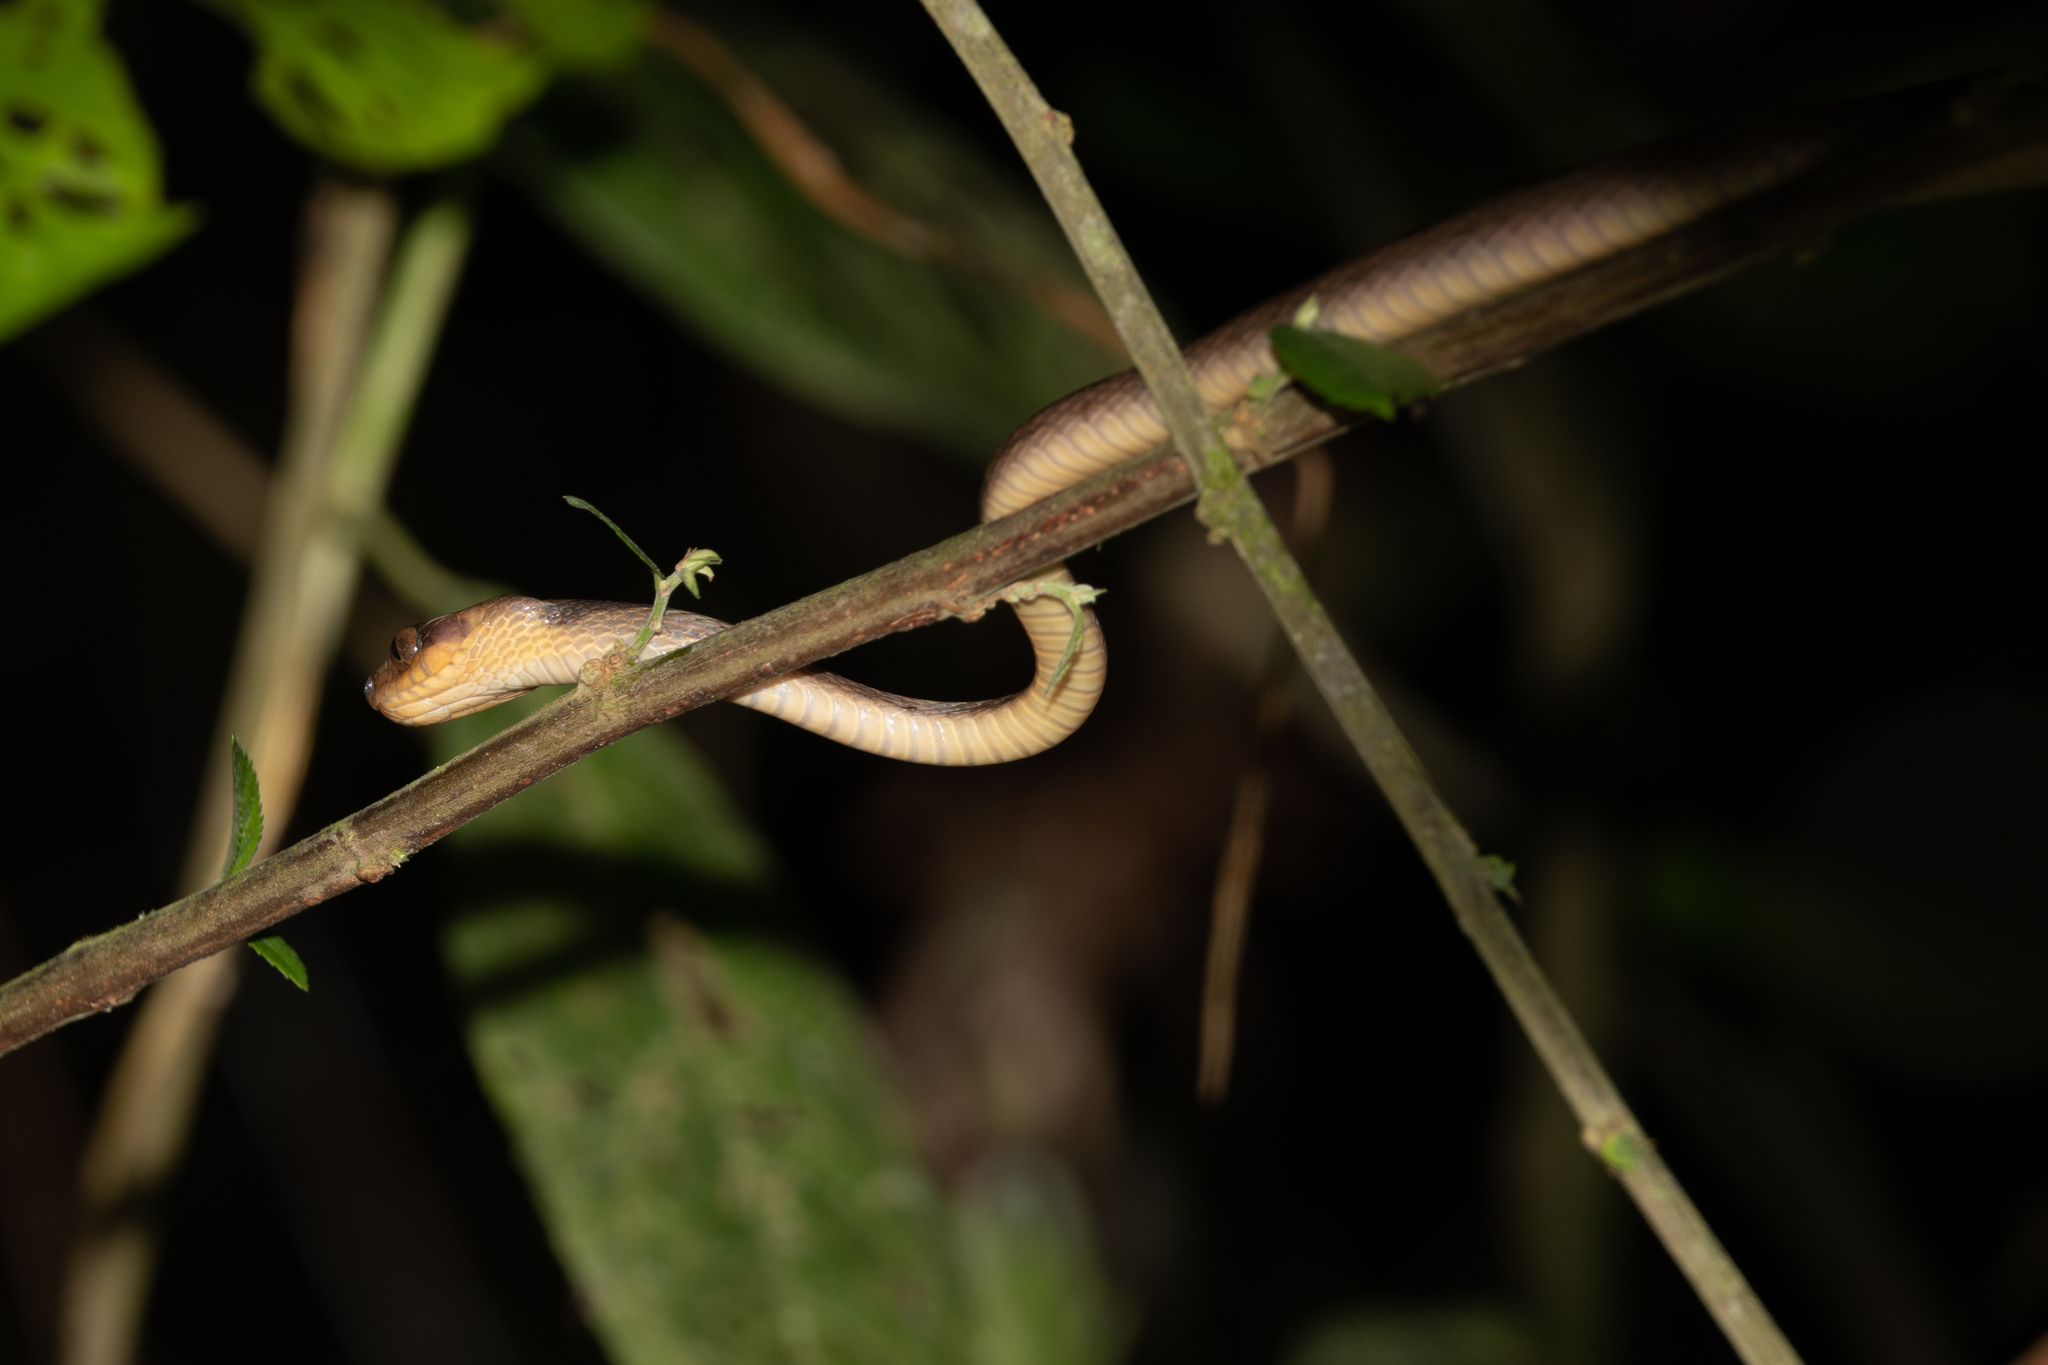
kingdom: Animalia
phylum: Chordata
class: Squamata
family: Colubridae
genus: Leptodeira
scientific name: Leptodeira annulata
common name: Banded cat-eyed snake
